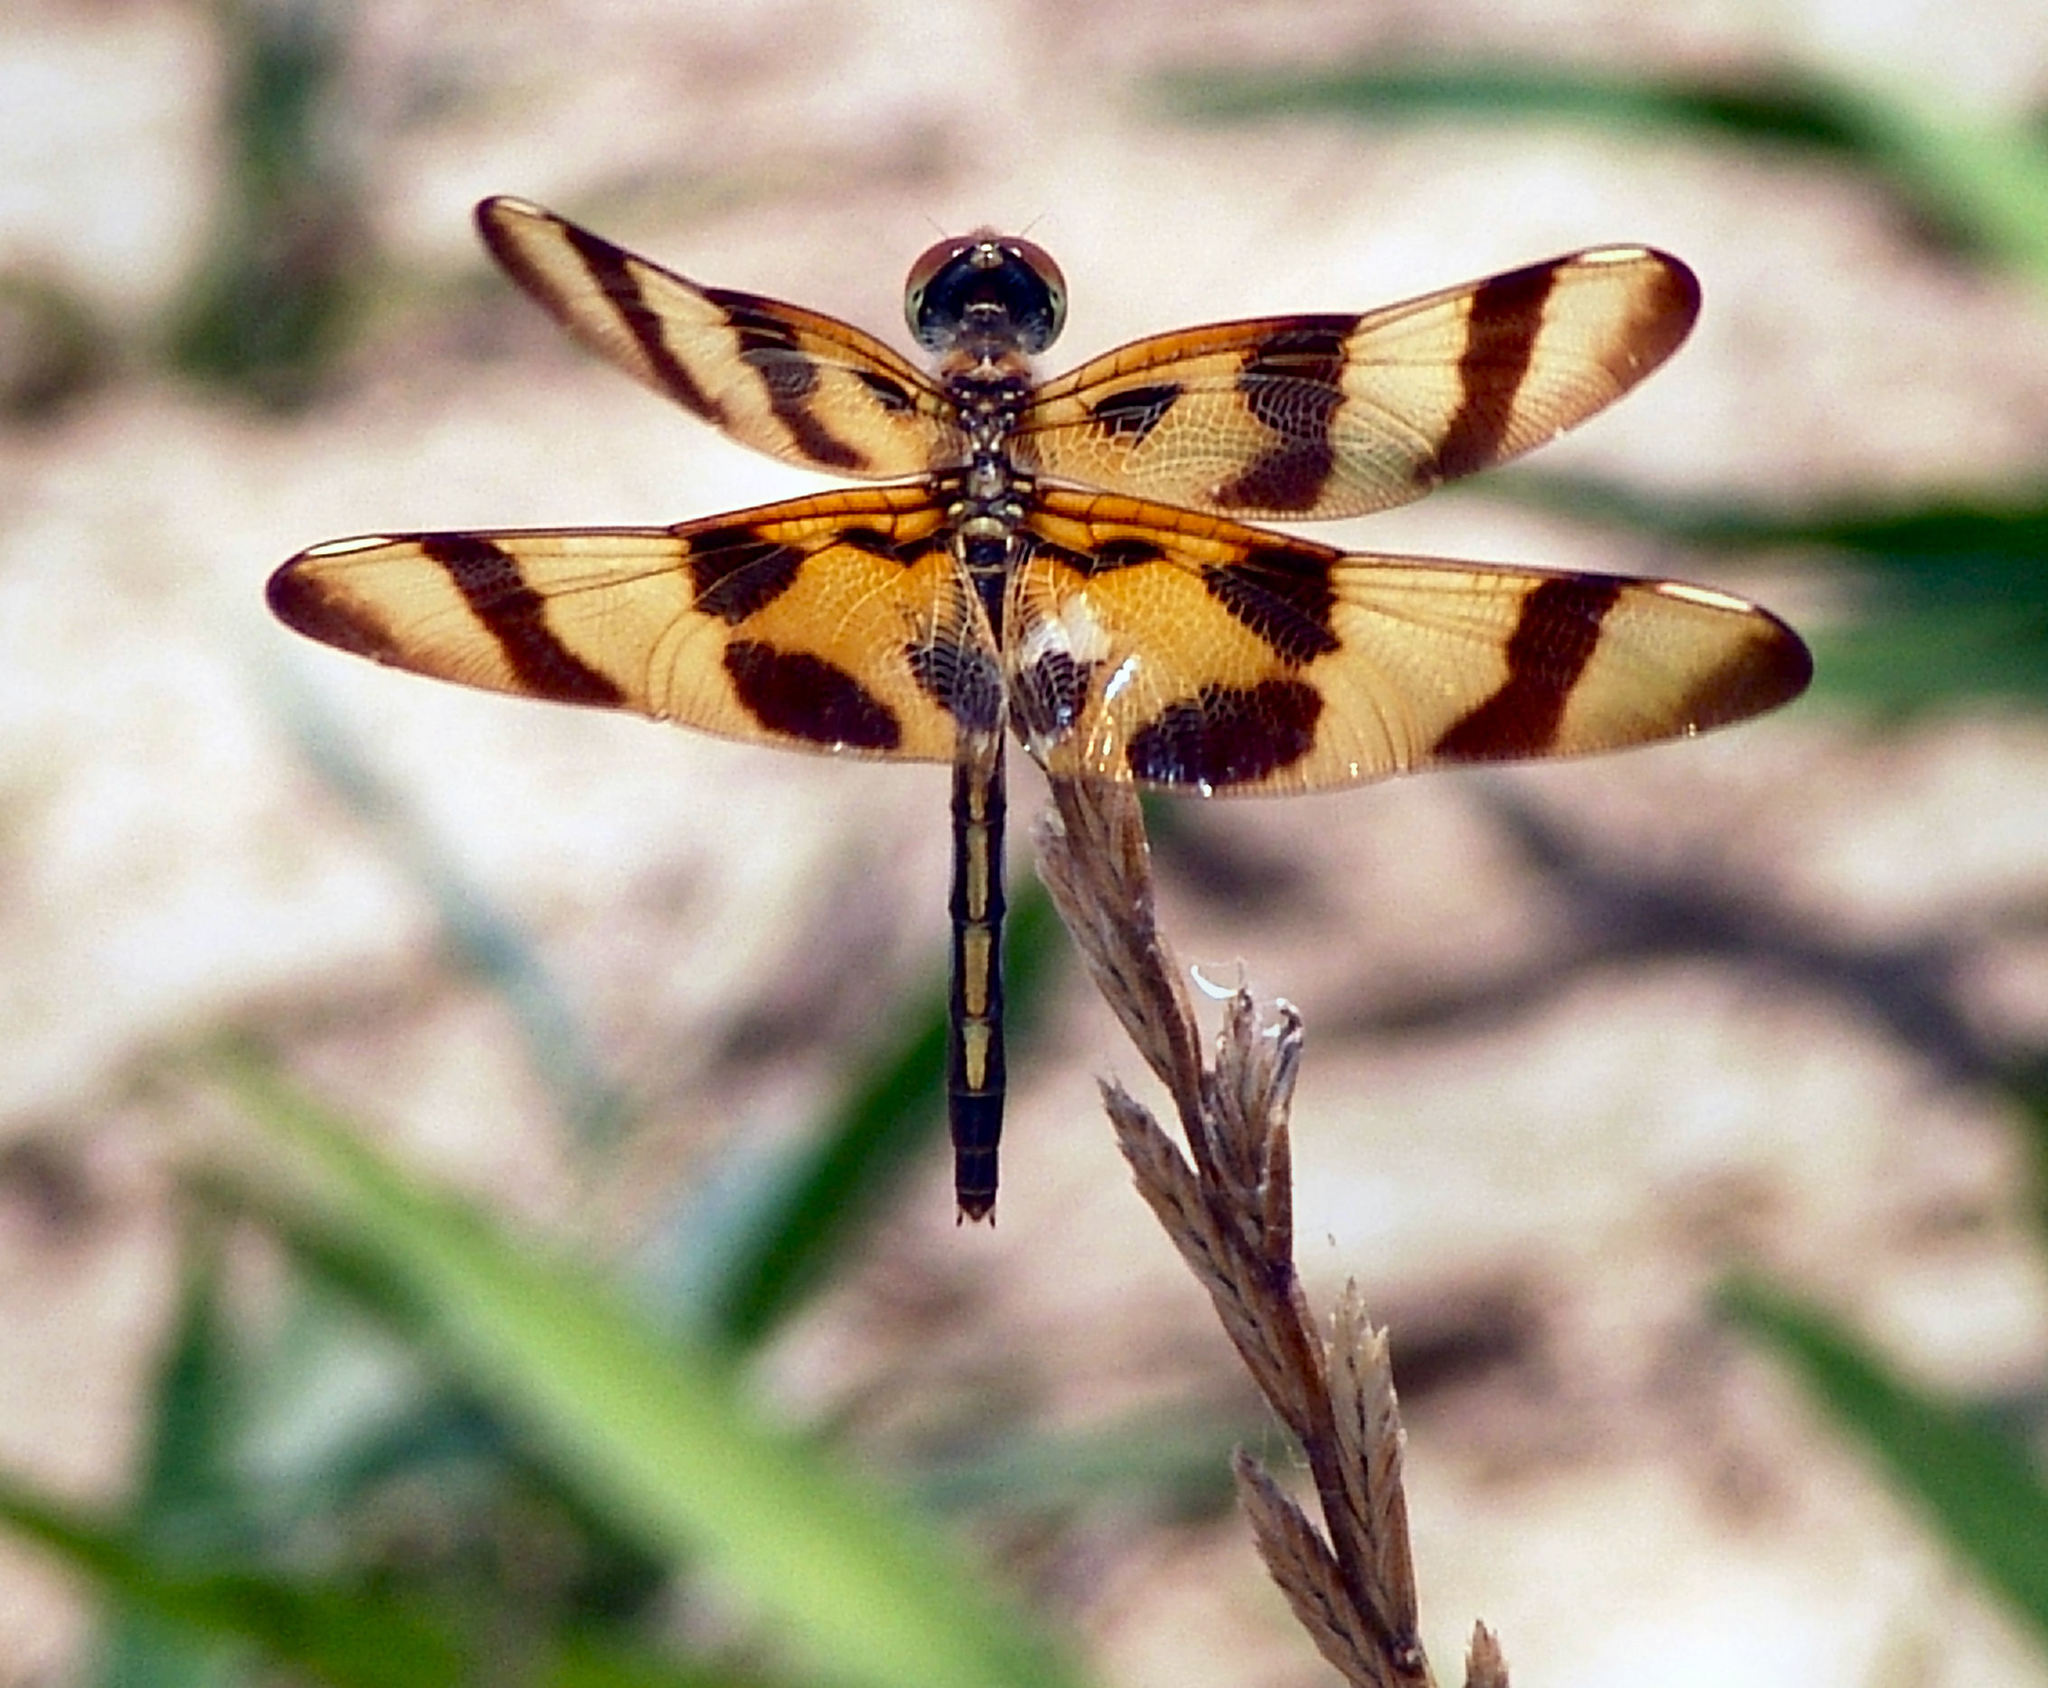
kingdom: Animalia
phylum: Arthropoda
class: Insecta
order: Odonata
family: Libellulidae
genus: Celithemis
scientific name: Celithemis eponina
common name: Halloween pennant
